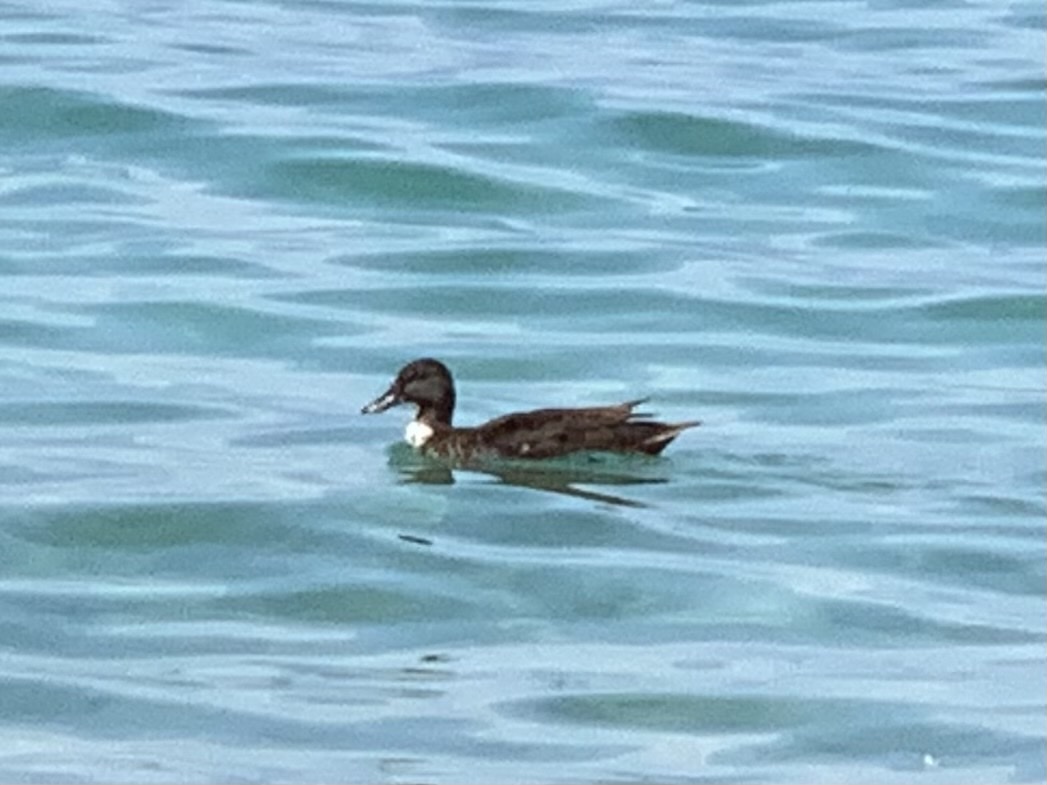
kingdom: Animalia
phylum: Chordata
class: Aves
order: Anseriformes
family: Anatidae
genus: Anas
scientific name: Anas platyrhynchos
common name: Mallard
